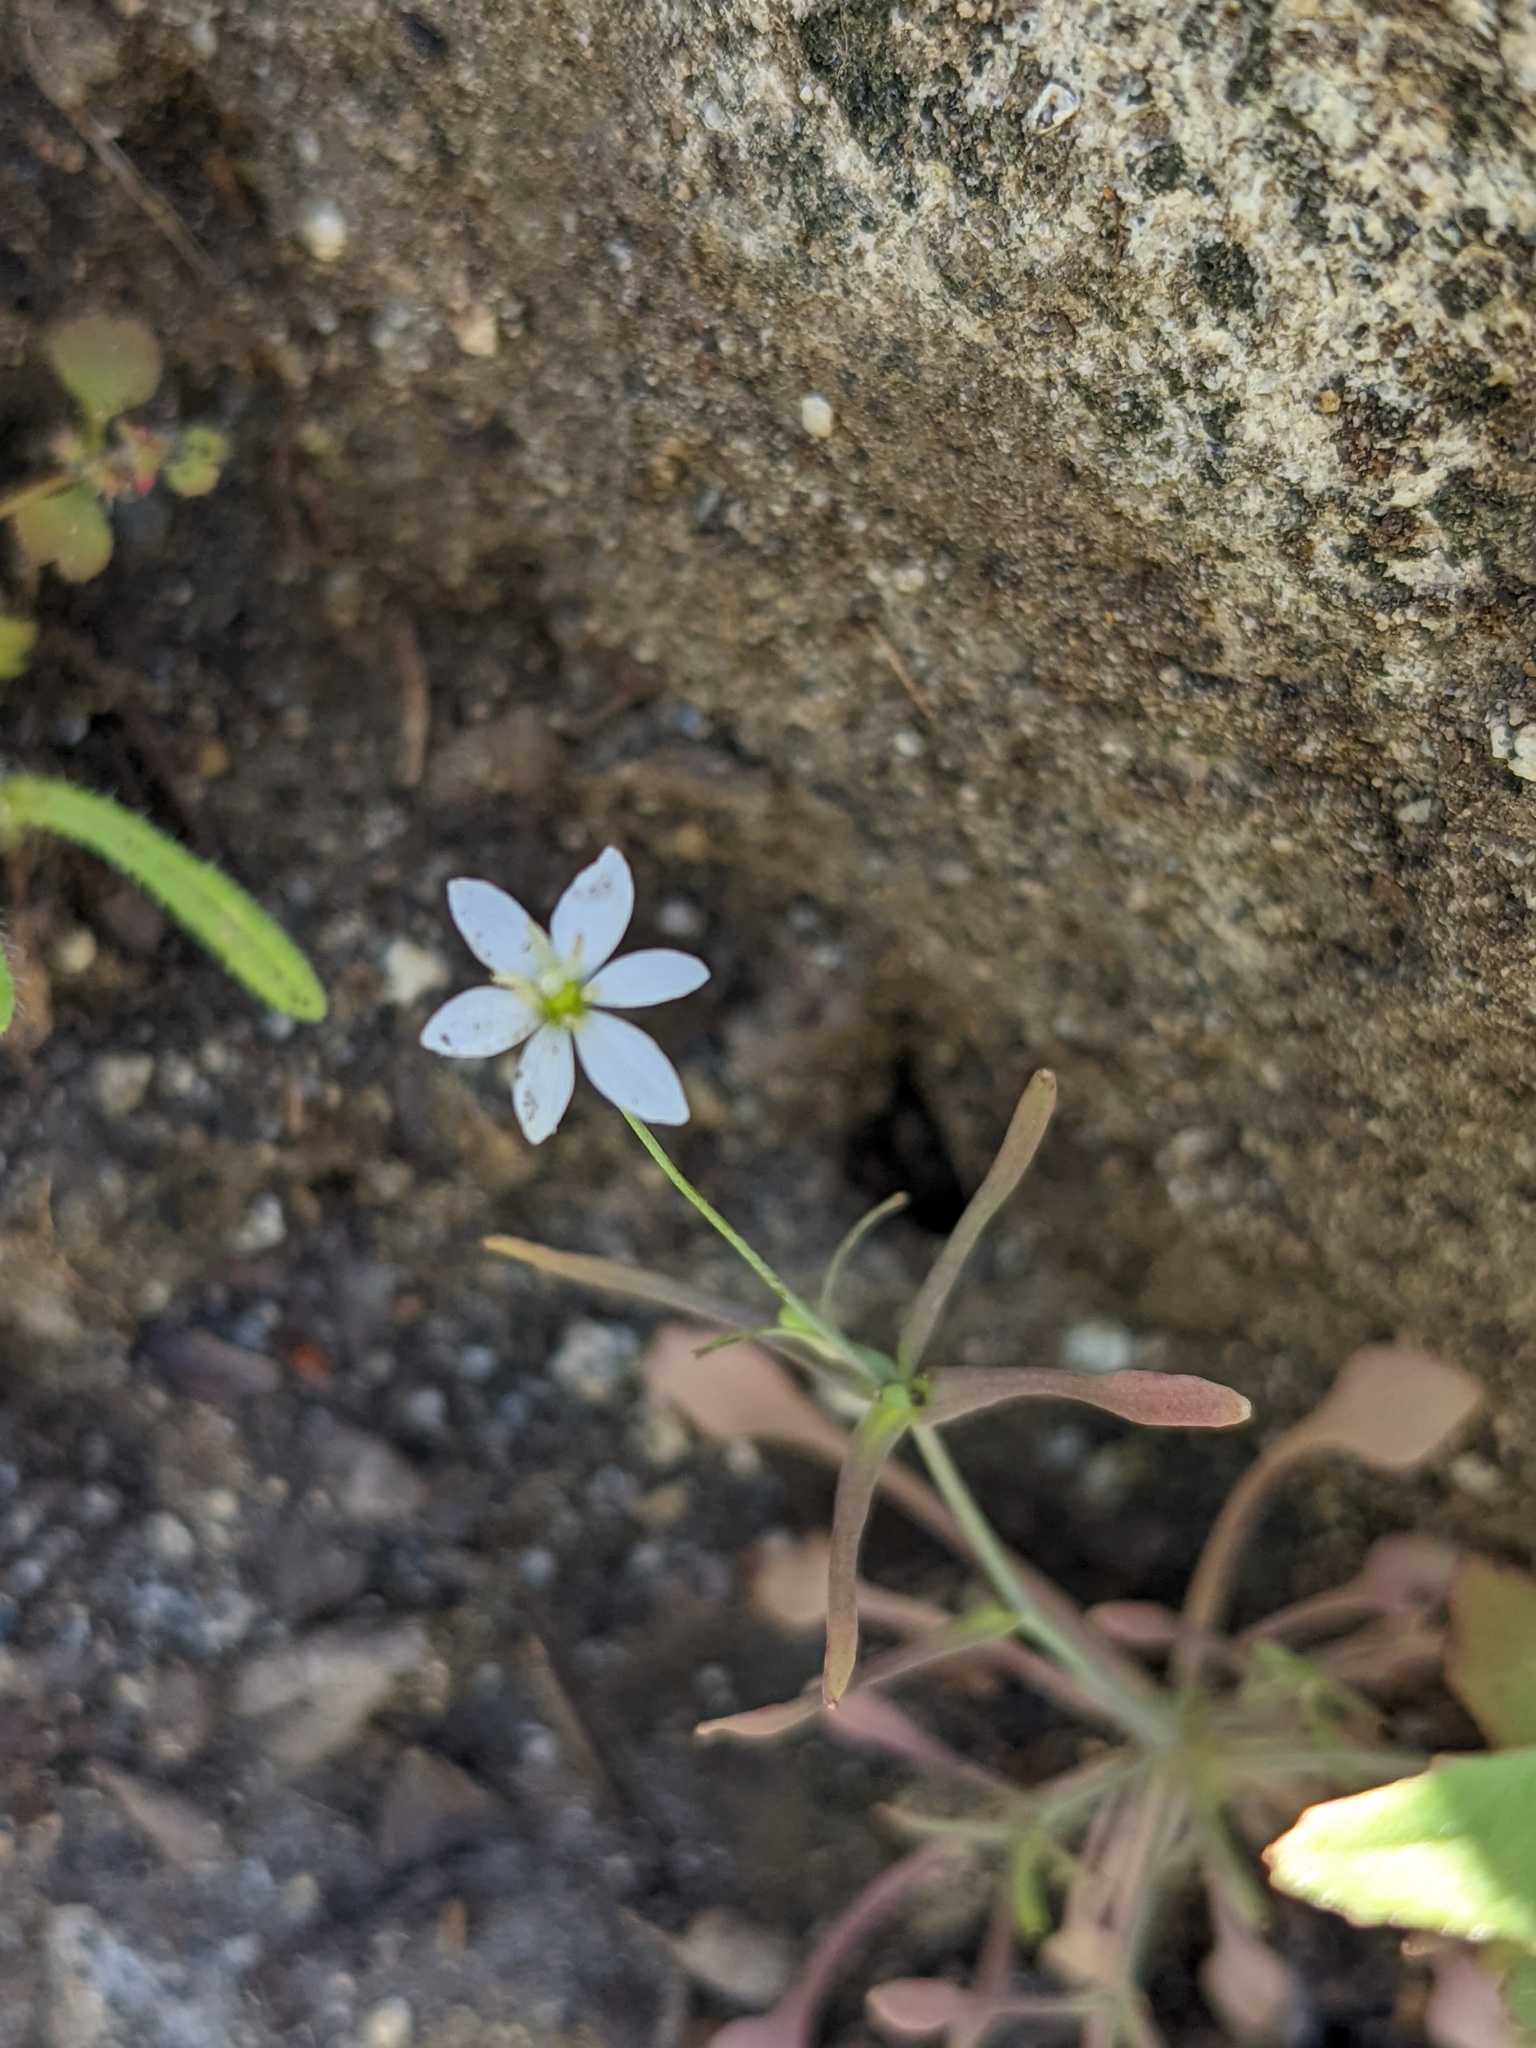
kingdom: Plantae
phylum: Tracheophyta
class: Magnoliopsida
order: Ranunculales
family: Papaveraceae
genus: Meconella
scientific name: Meconella denticulata
